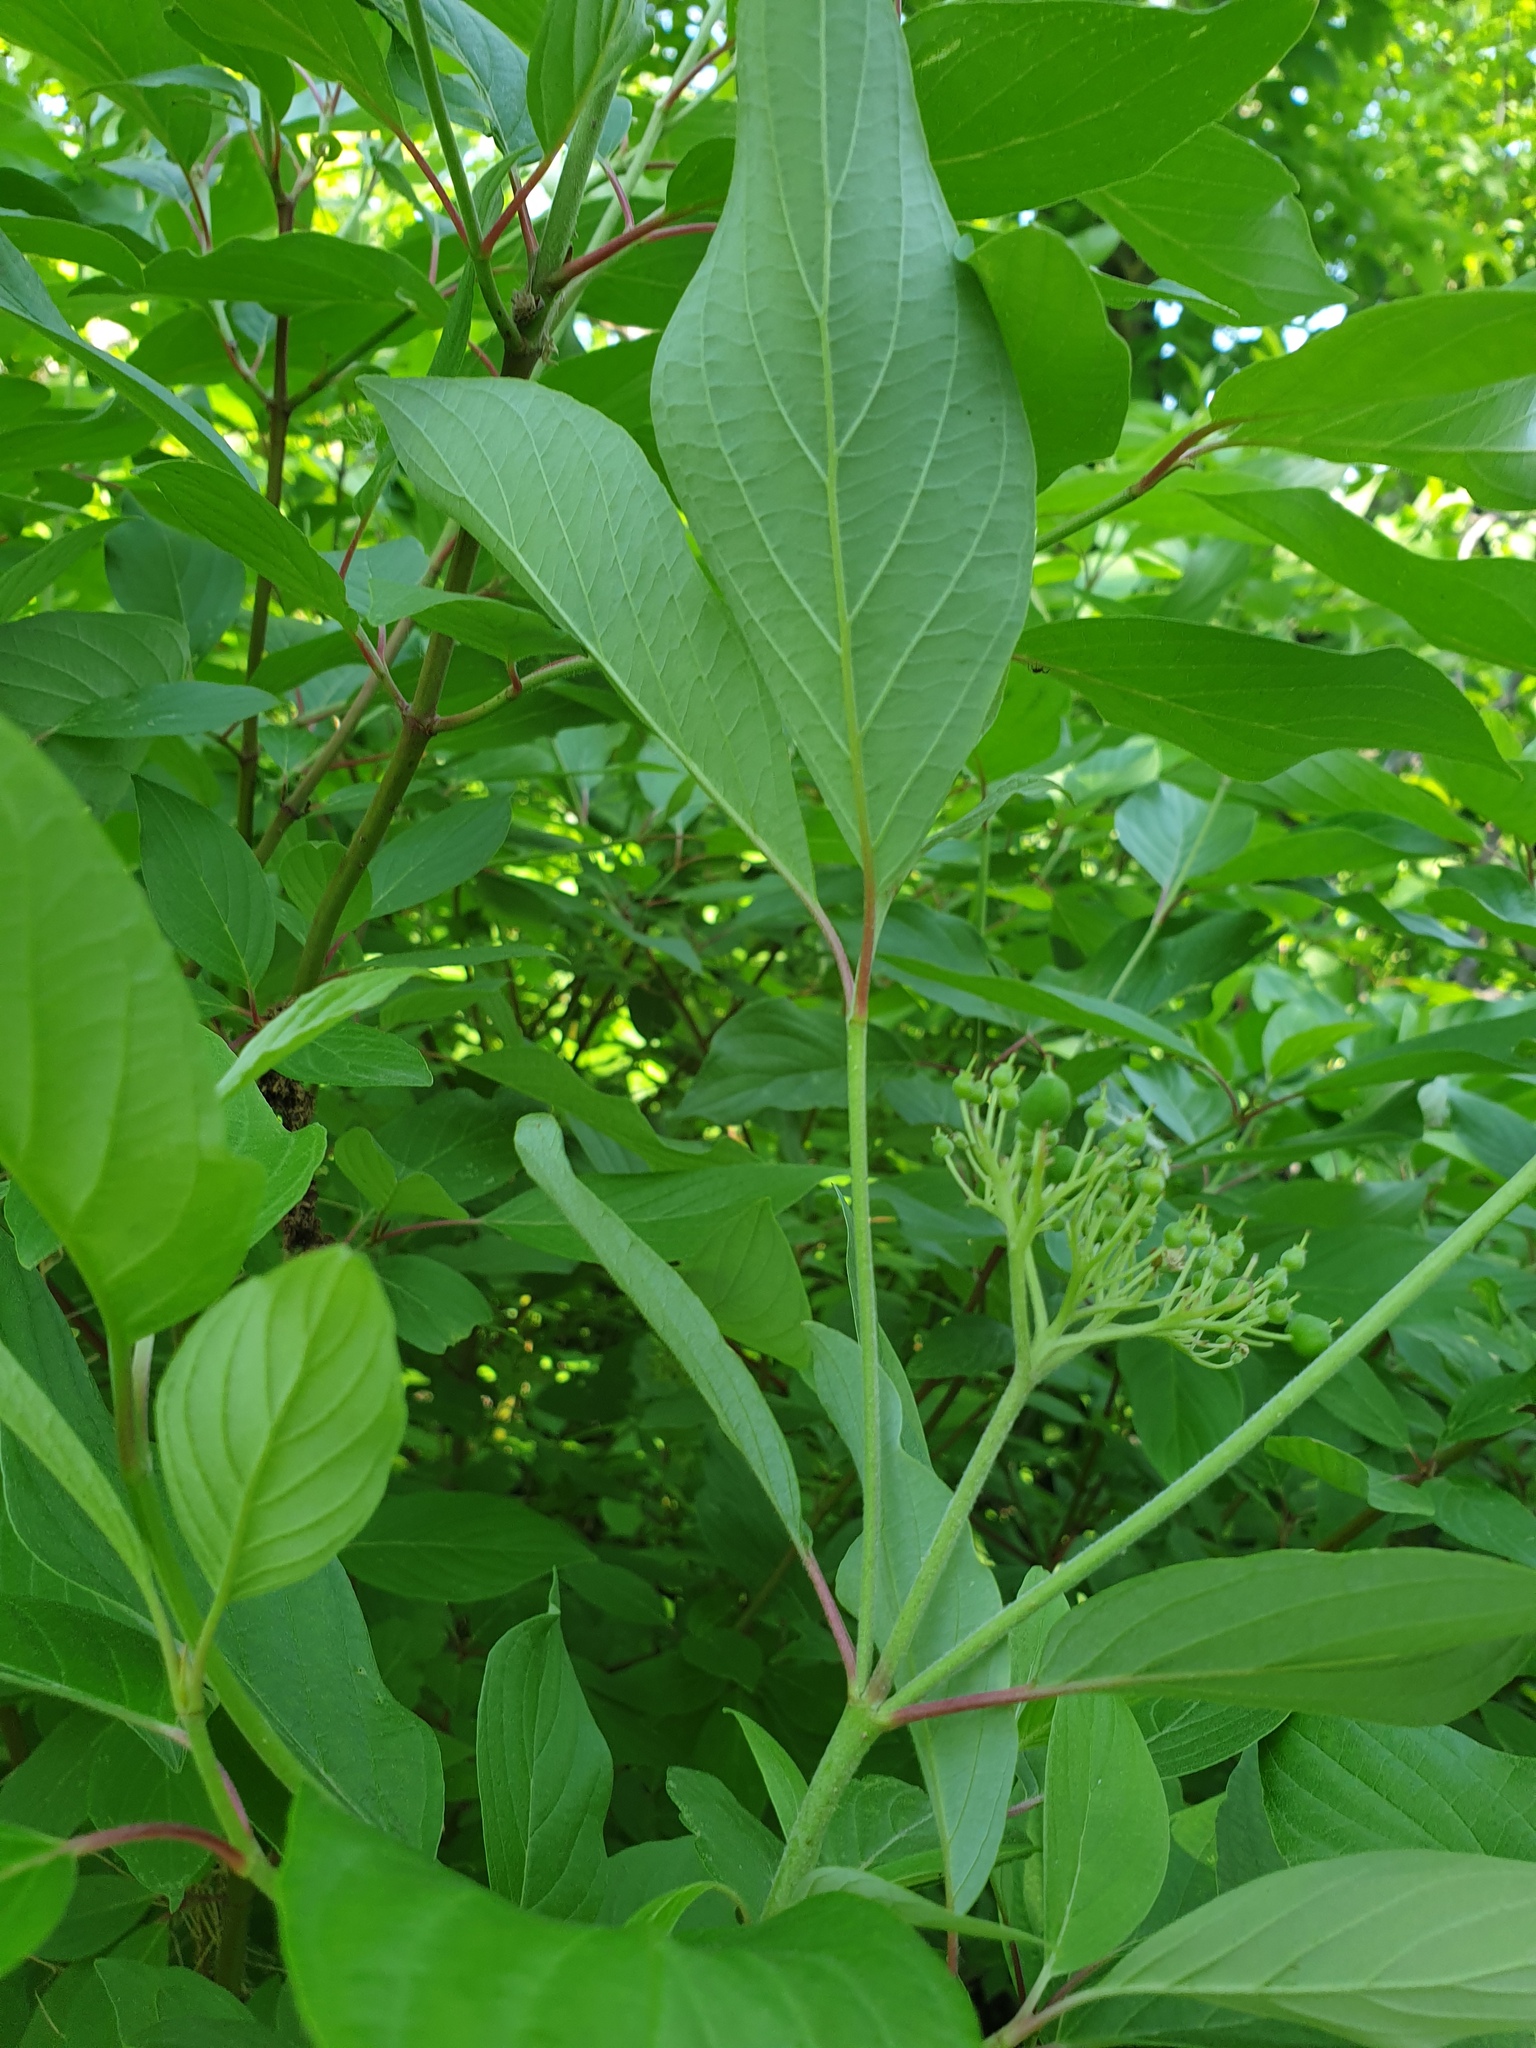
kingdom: Plantae
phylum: Tracheophyta
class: Magnoliopsida
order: Cornales
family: Cornaceae
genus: Cornus
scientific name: Cornus sericea
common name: Red-osier dogwood
